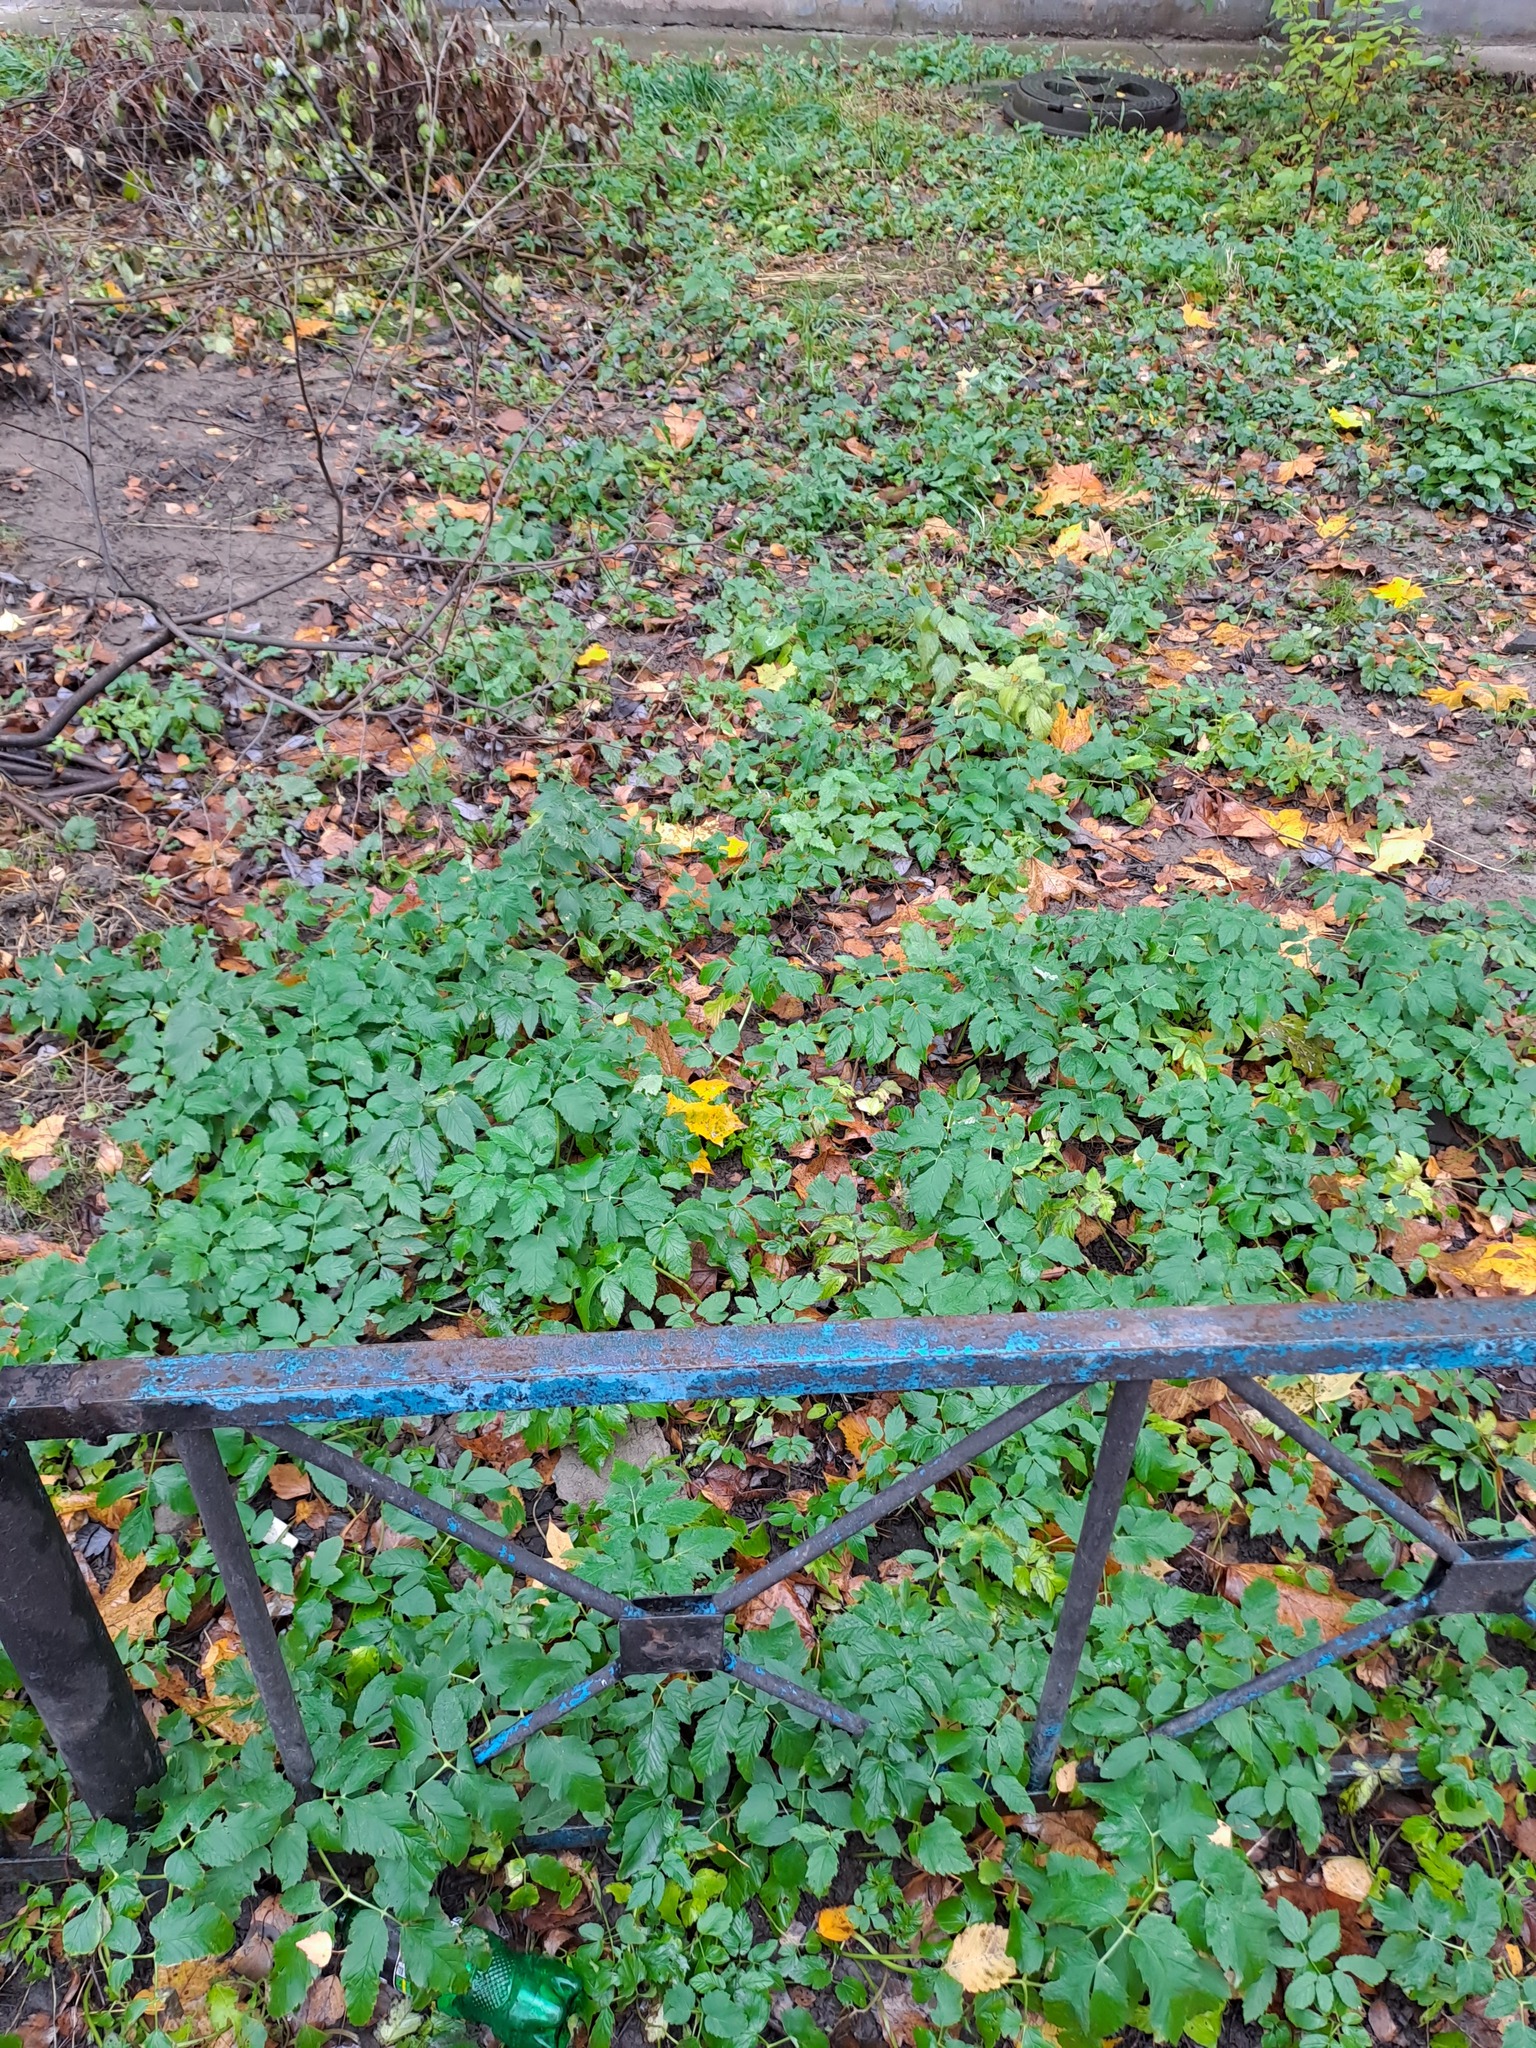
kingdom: Plantae
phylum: Tracheophyta
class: Magnoliopsida
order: Apiales
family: Apiaceae
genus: Aegopodium
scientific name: Aegopodium podagraria
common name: Ground-elder
